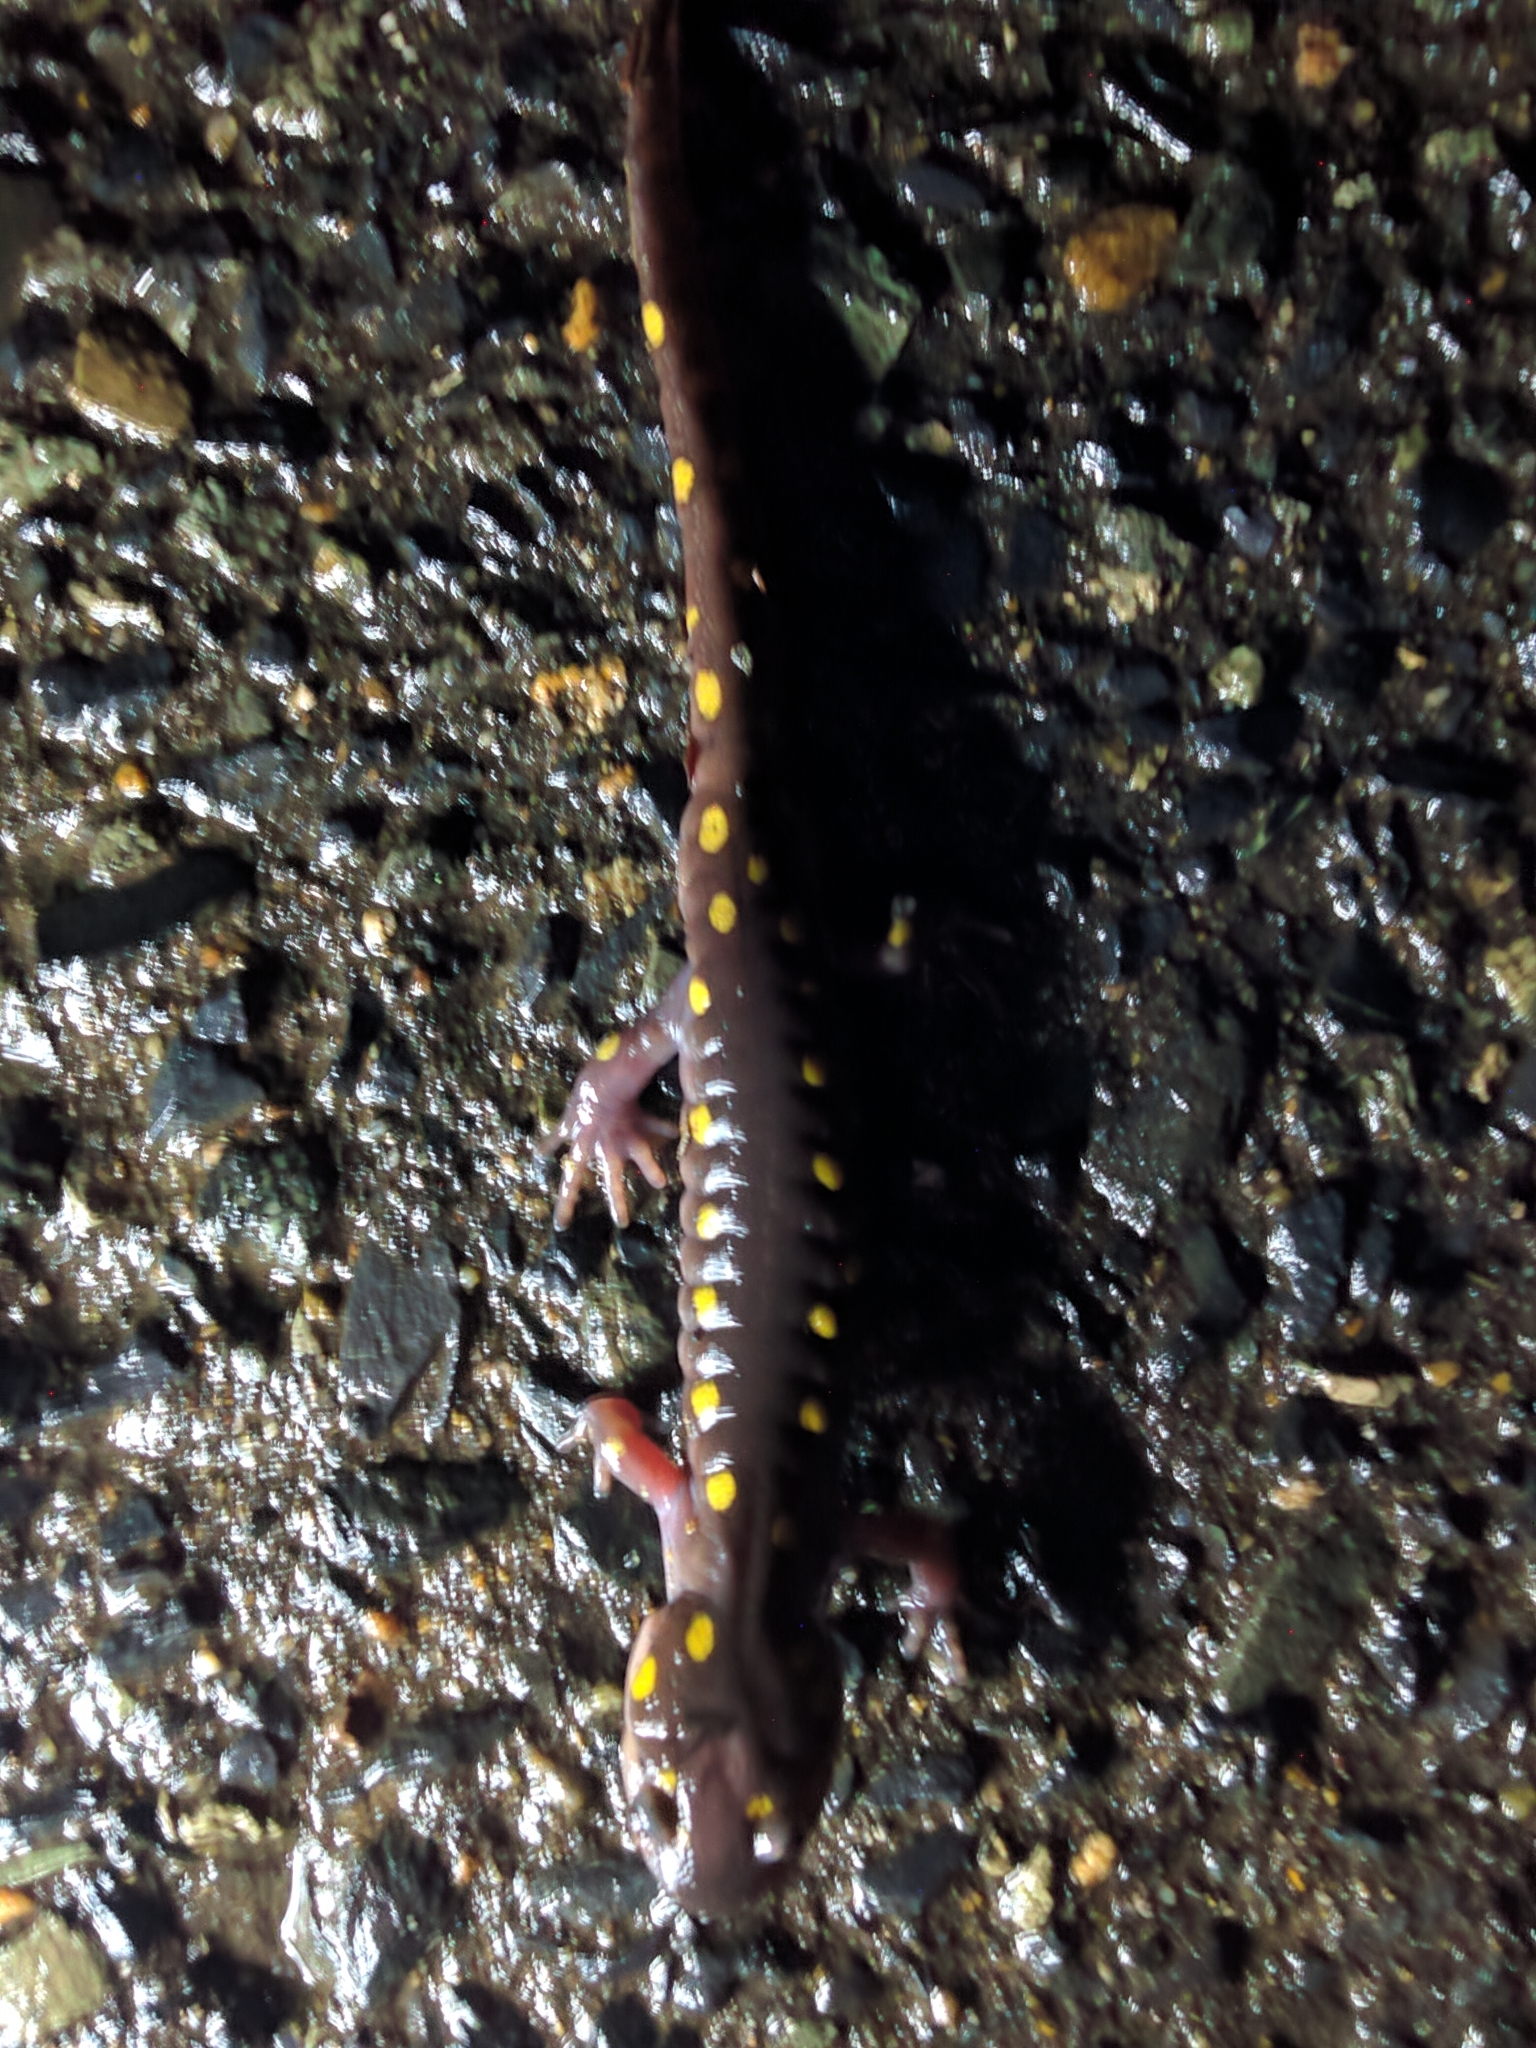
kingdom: Animalia
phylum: Chordata
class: Amphibia
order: Caudata
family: Ambystomatidae
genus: Ambystoma
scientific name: Ambystoma maculatum
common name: Spotted salamander
